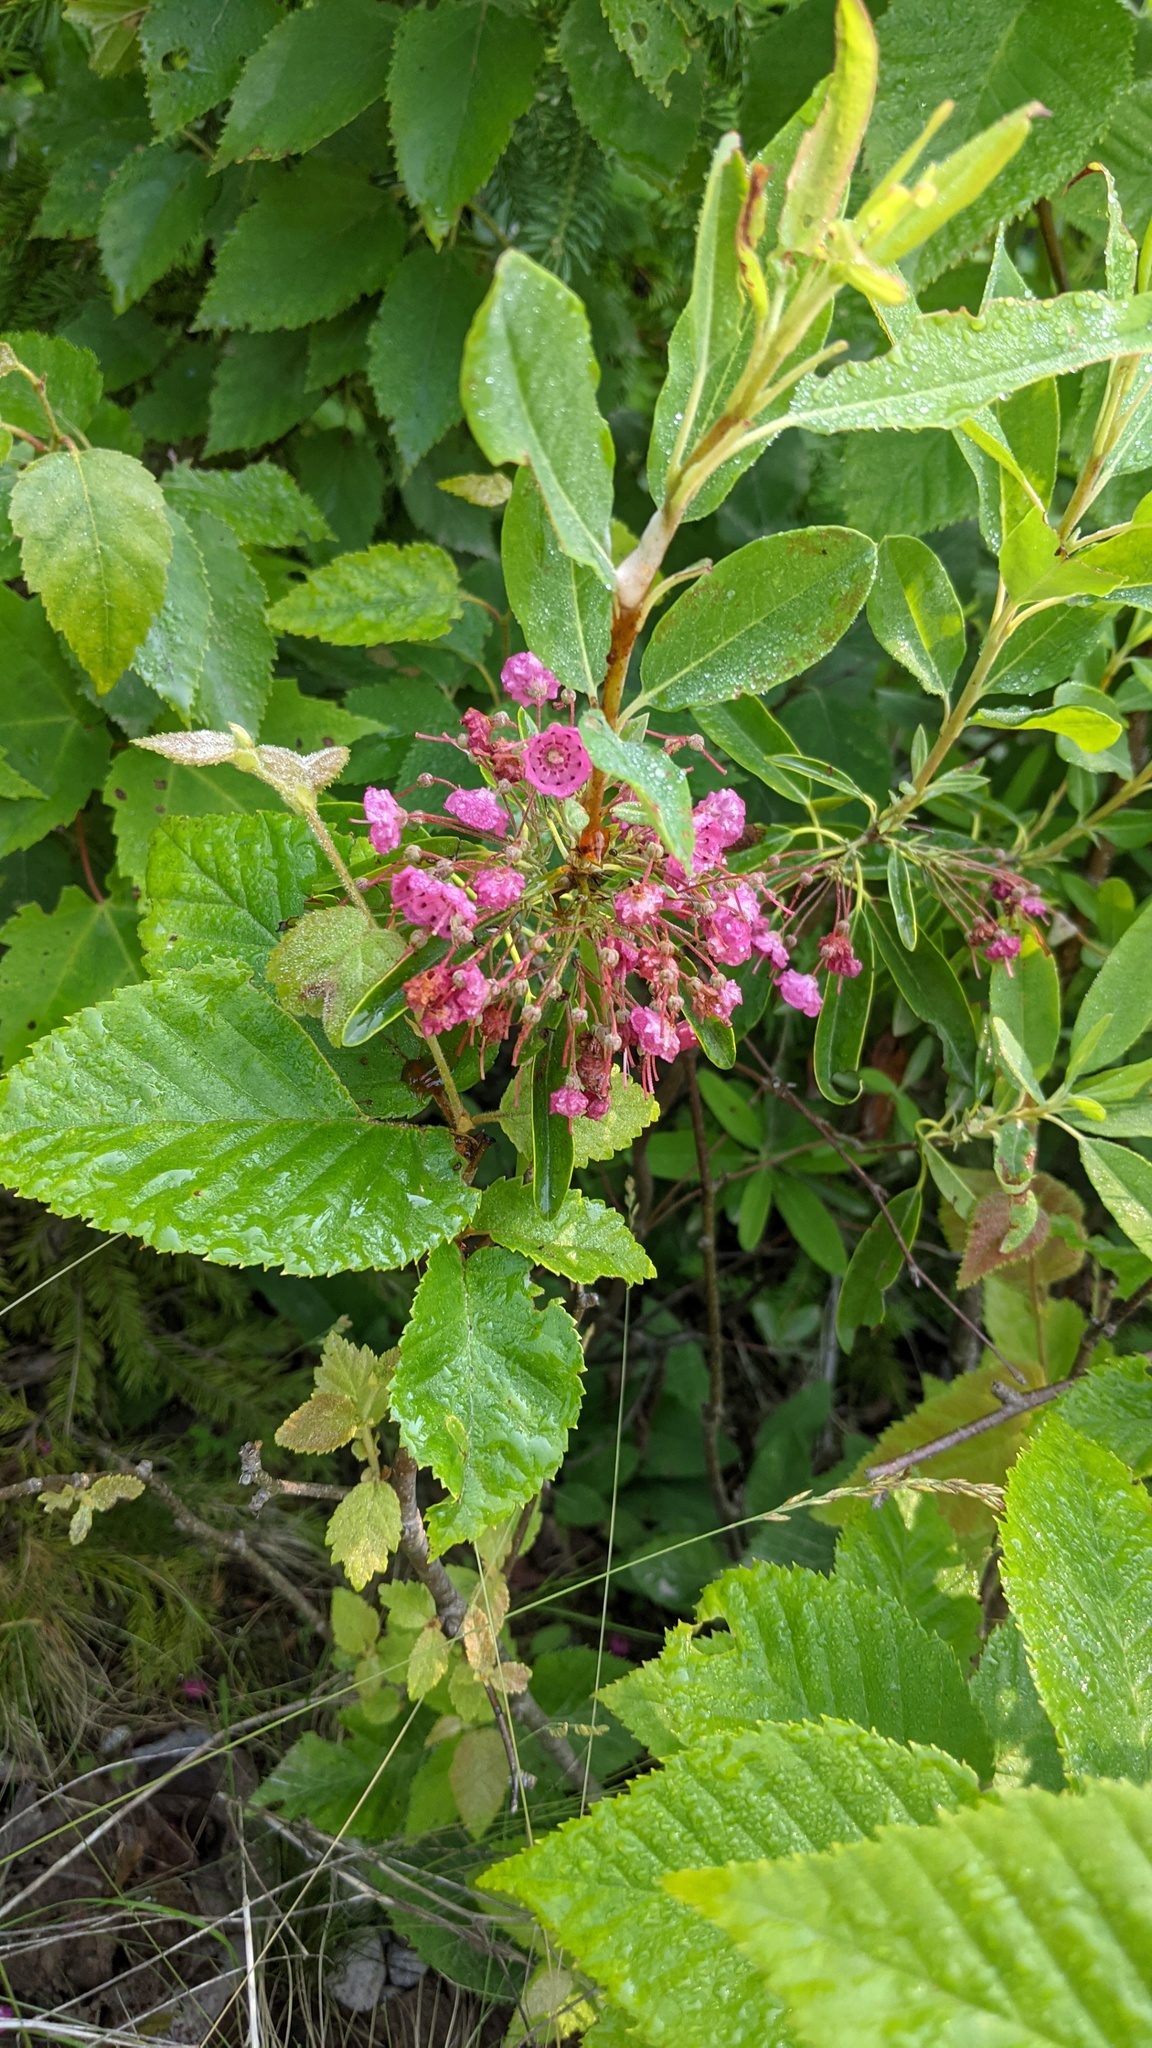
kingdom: Plantae
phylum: Tracheophyta
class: Magnoliopsida
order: Ericales
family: Ericaceae
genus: Kalmia
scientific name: Kalmia angustifolia
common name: Sheep-laurel
